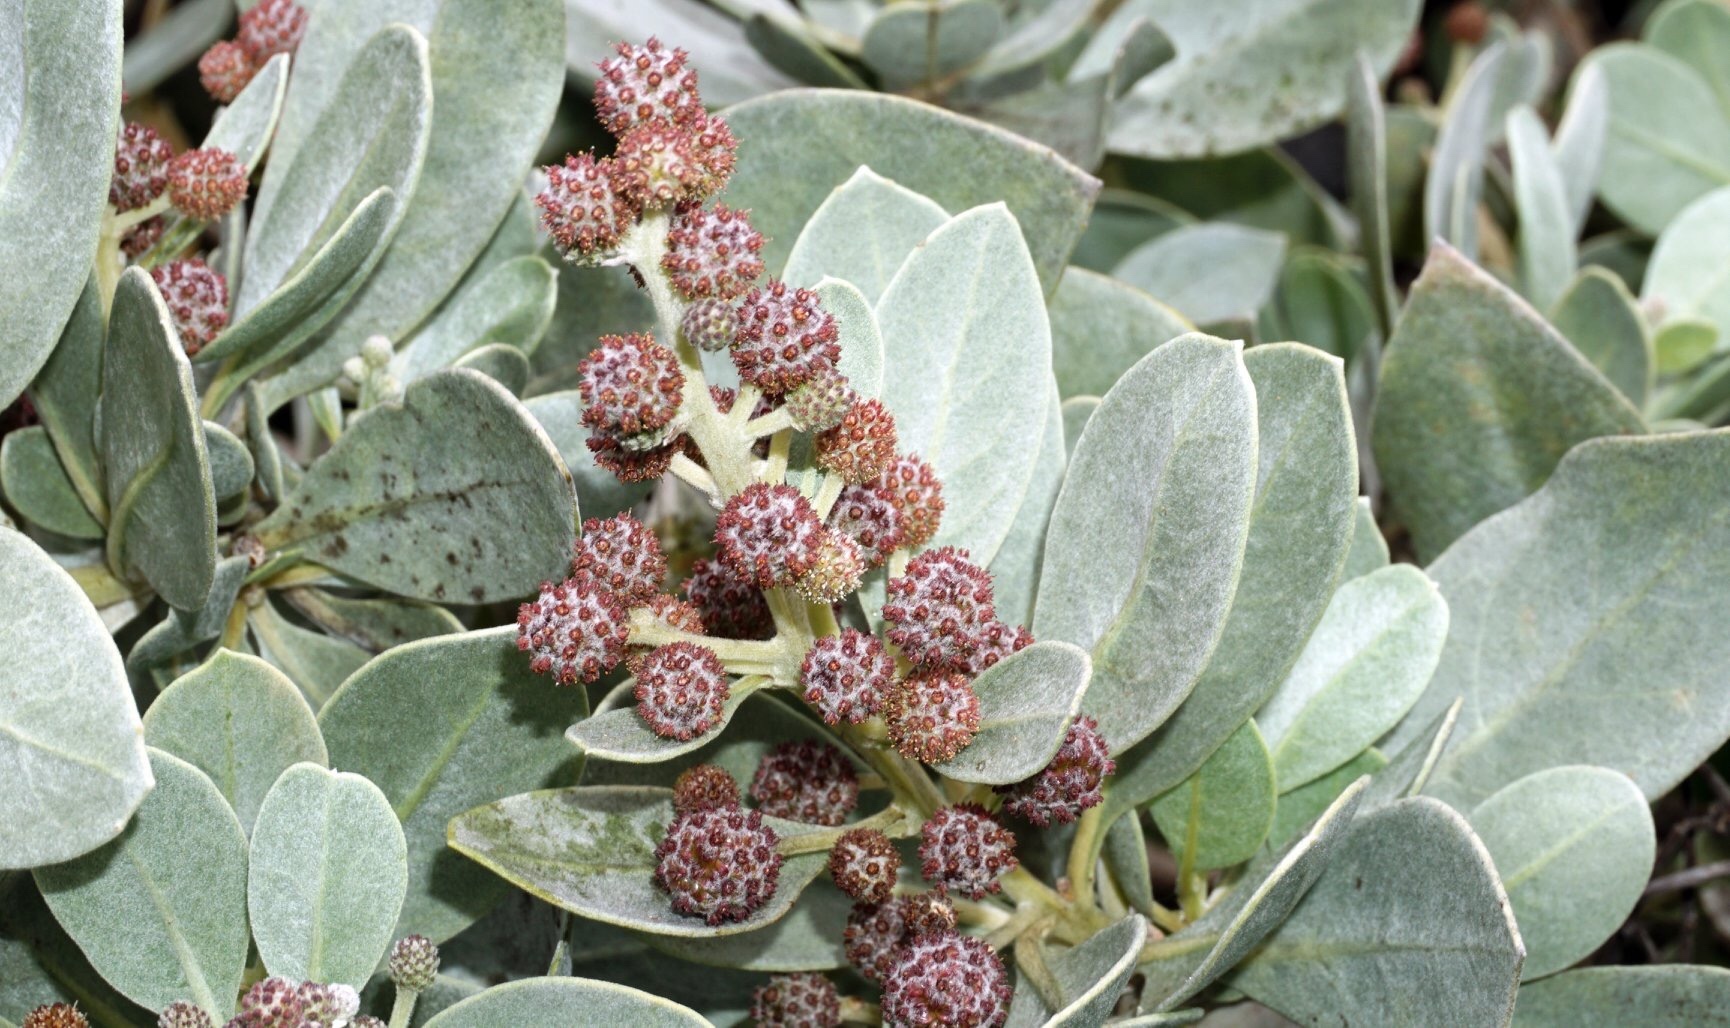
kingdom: Plantae
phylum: Tracheophyta
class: Magnoliopsida
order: Myrtales
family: Combretaceae
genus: Conocarpus
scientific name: Conocarpus erectus
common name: Button mangrove
